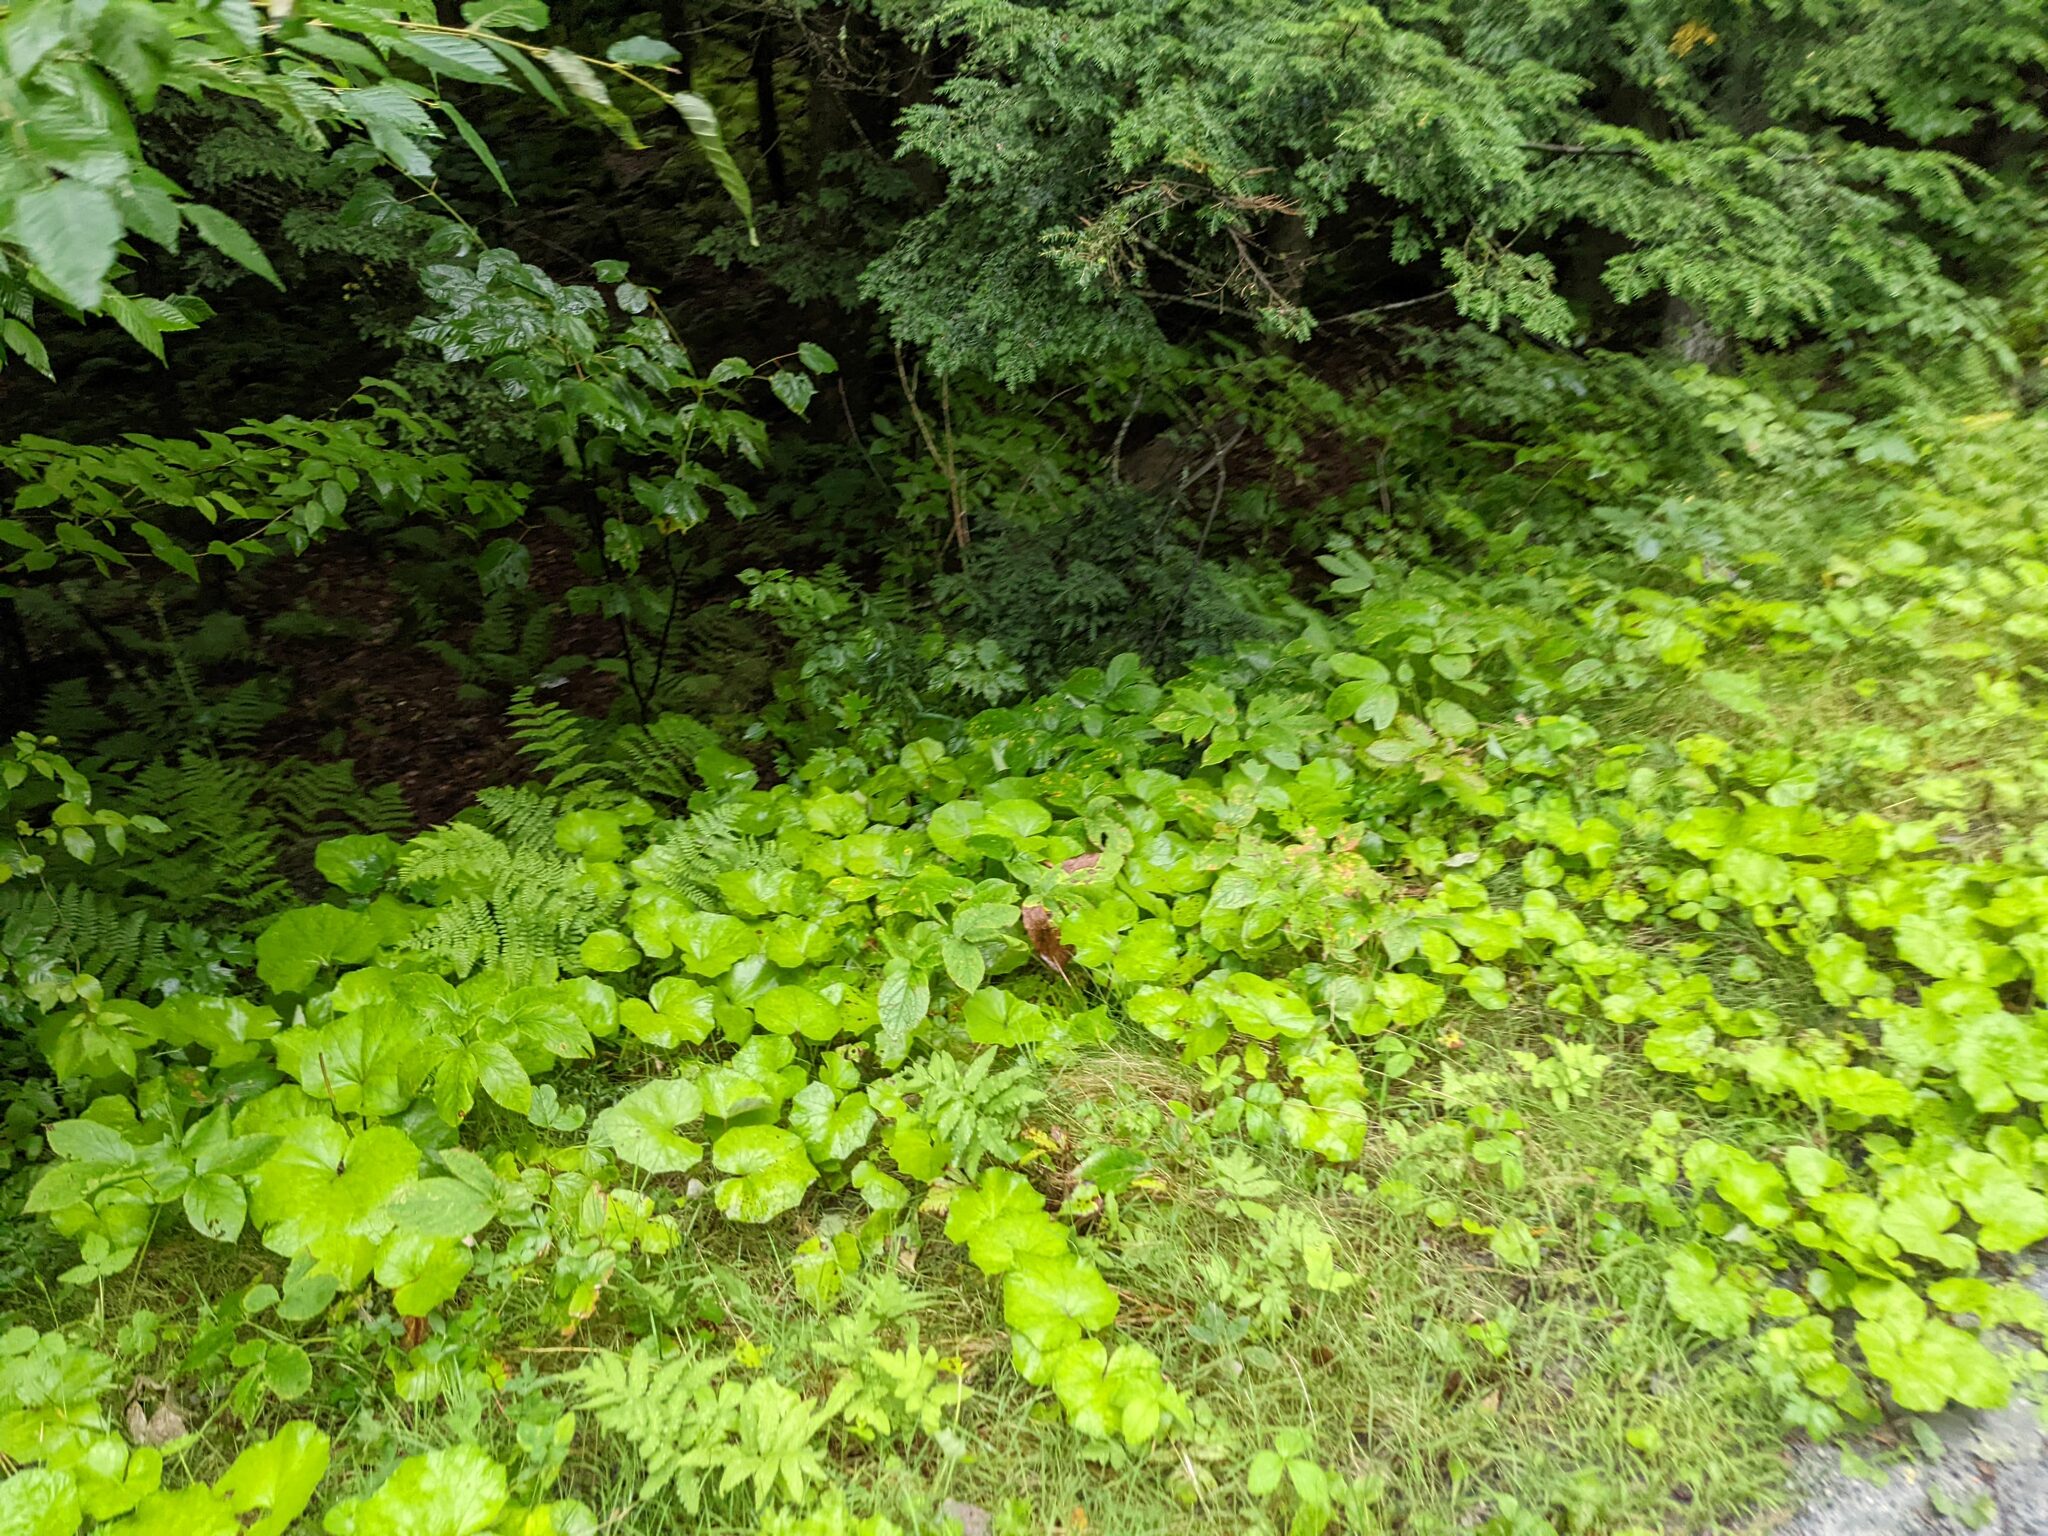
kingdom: Plantae
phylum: Tracheophyta
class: Magnoliopsida
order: Asterales
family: Asteraceae
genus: Tussilago
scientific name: Tussilago farfara
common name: Coltsfoot
